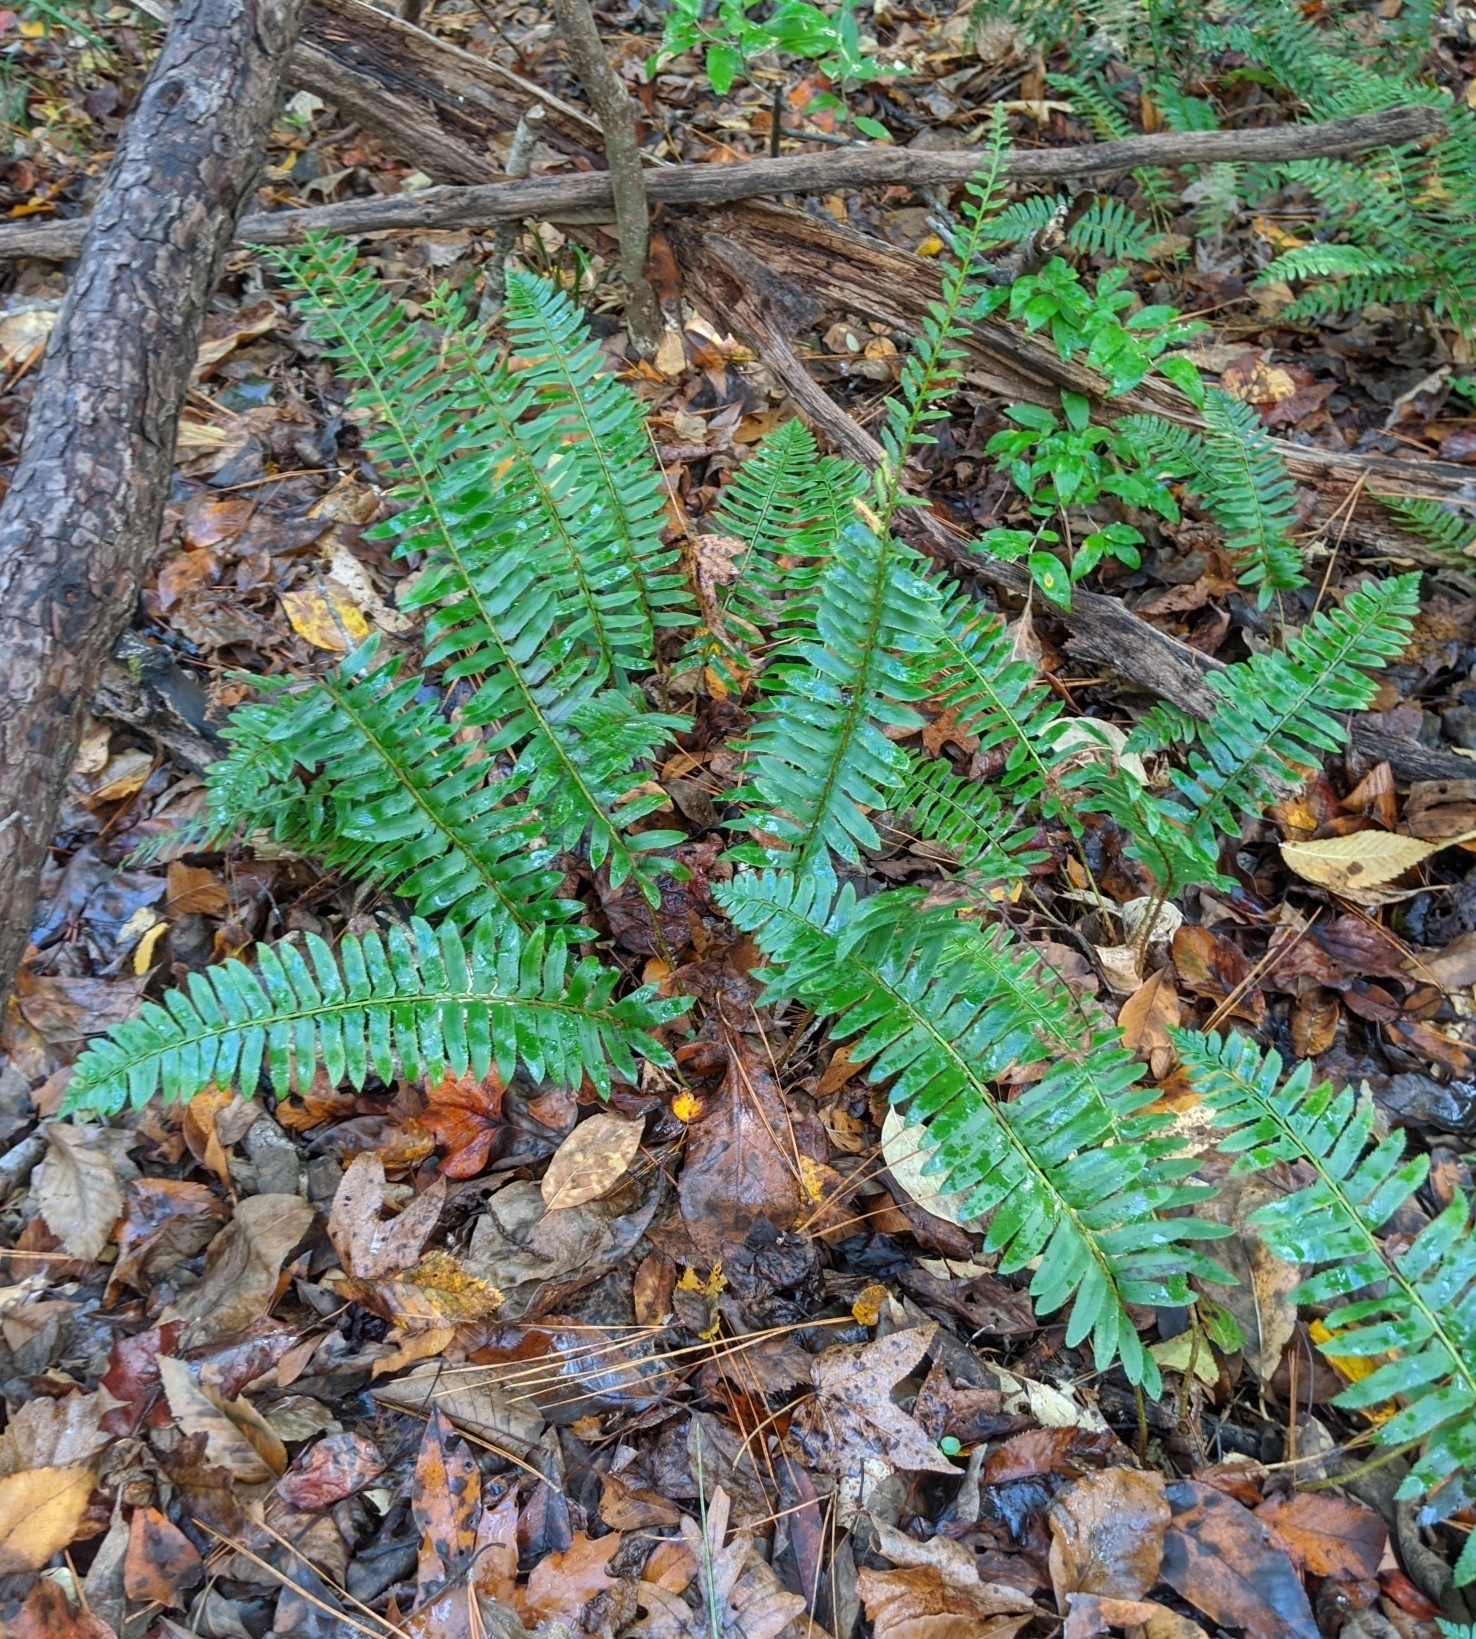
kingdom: Plantae
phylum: Tracheophyta
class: Polypodiopsida
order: Polypodiales
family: Dryopteridaceae
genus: Polystichum
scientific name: Polystichum acrostichoides
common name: Christmas fern
